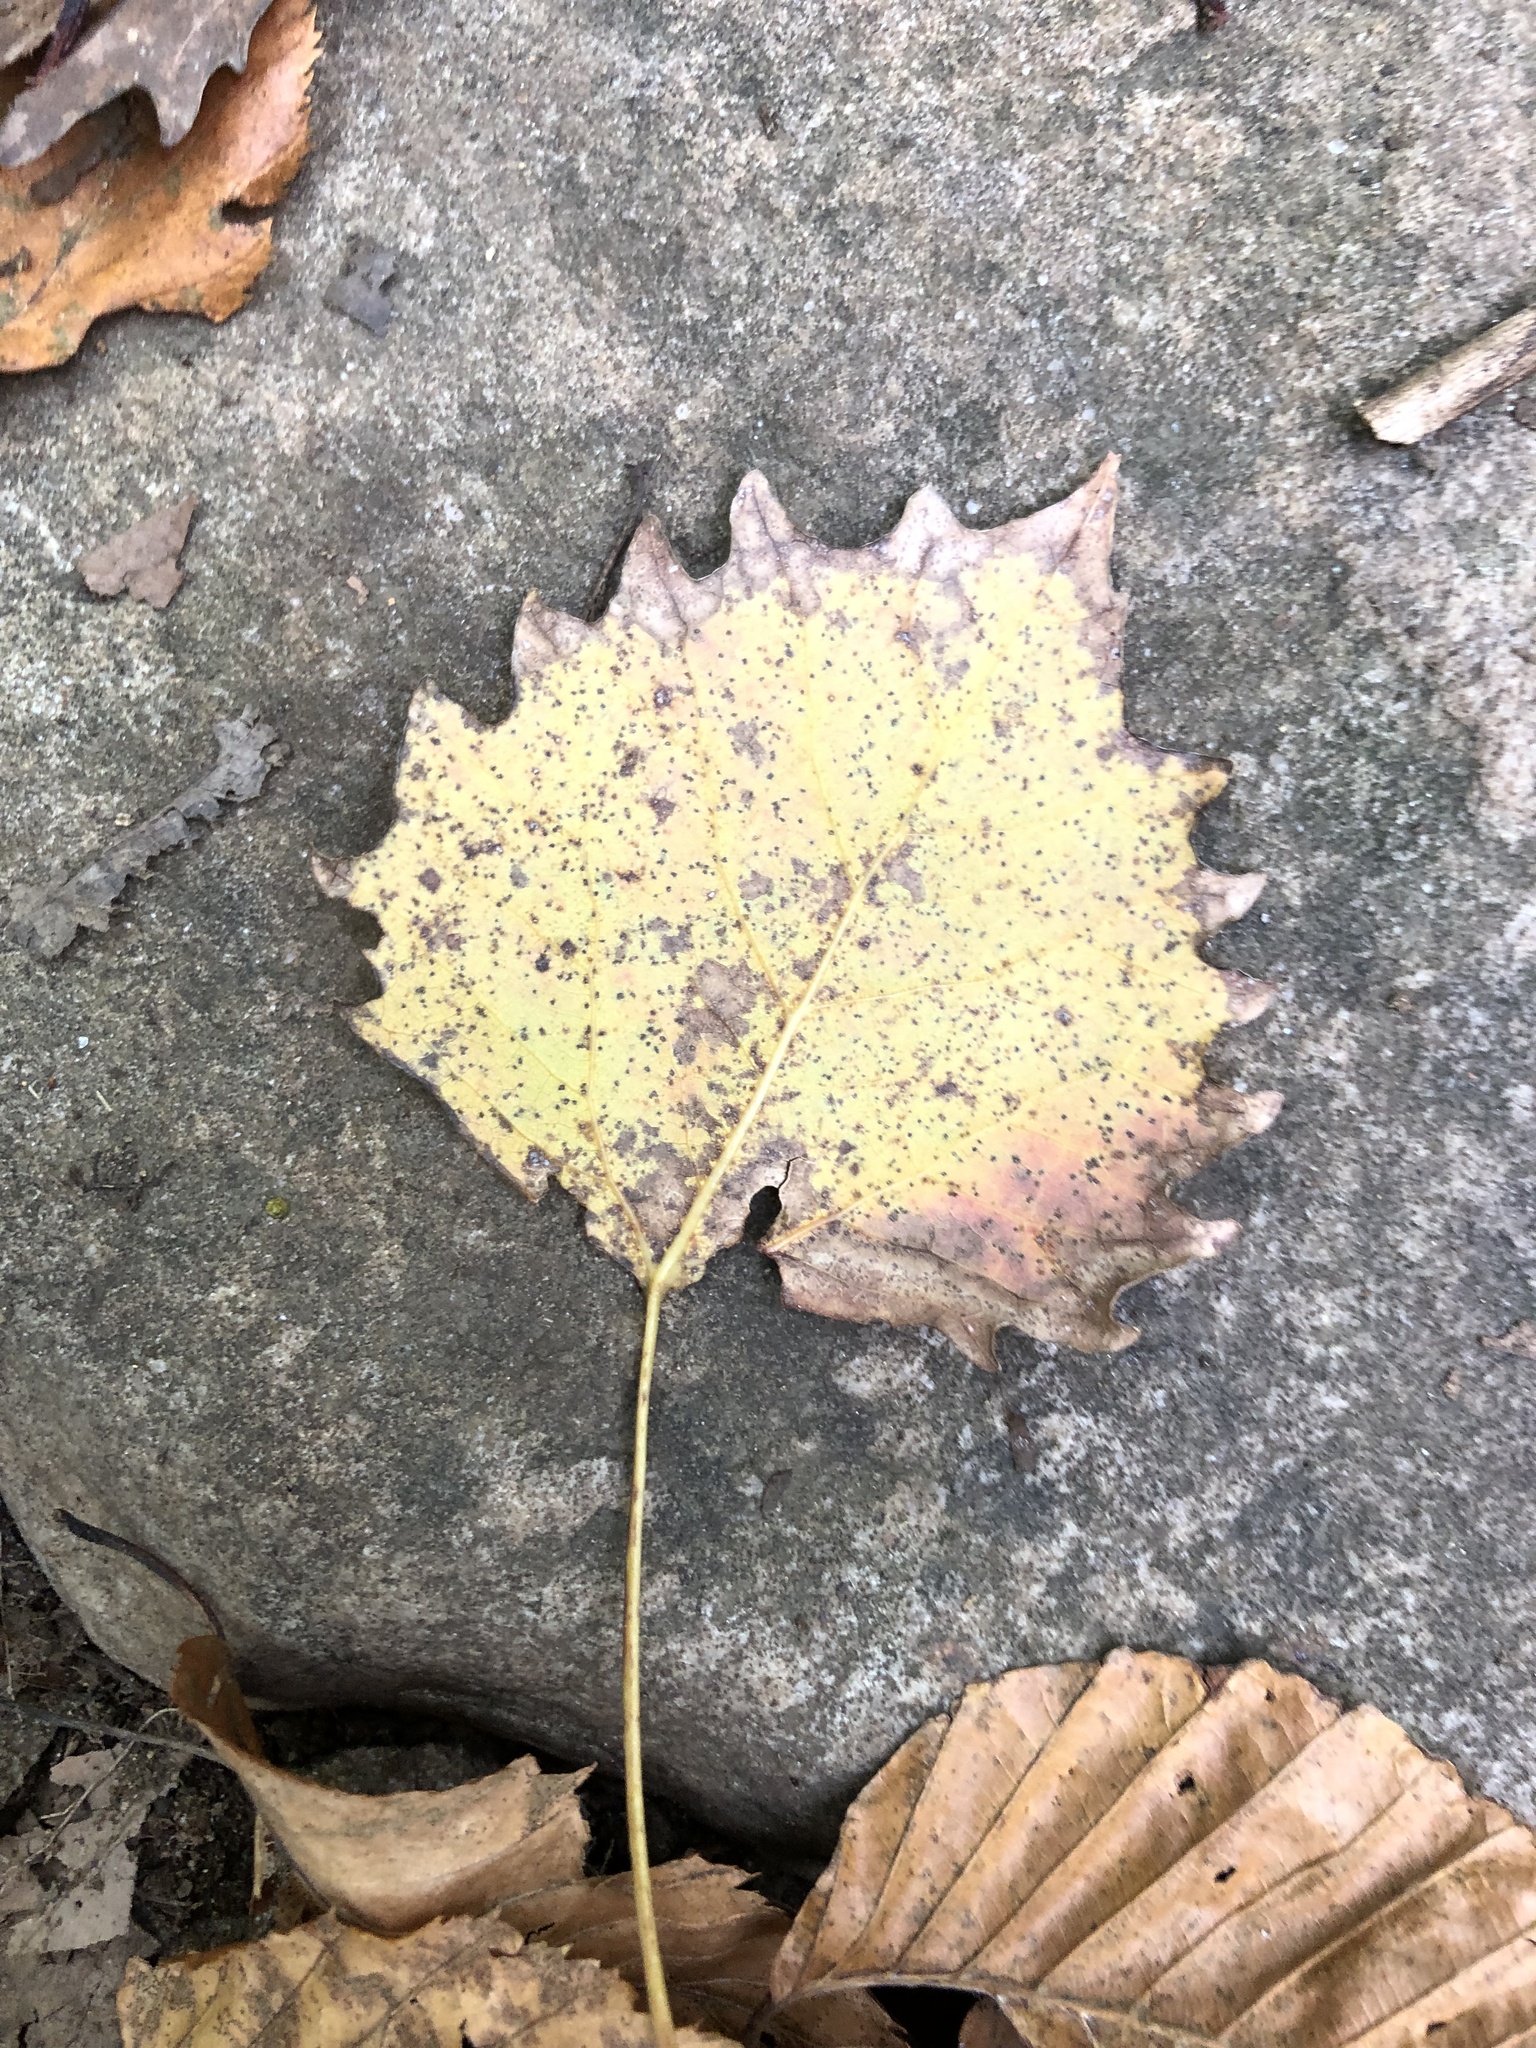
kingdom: Plantae
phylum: Tracheophyta
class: Magnoliopsida
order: Malpighiales
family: Salicaceae
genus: Populus
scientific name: Populus grandidentata
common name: Bigtooth aspen
